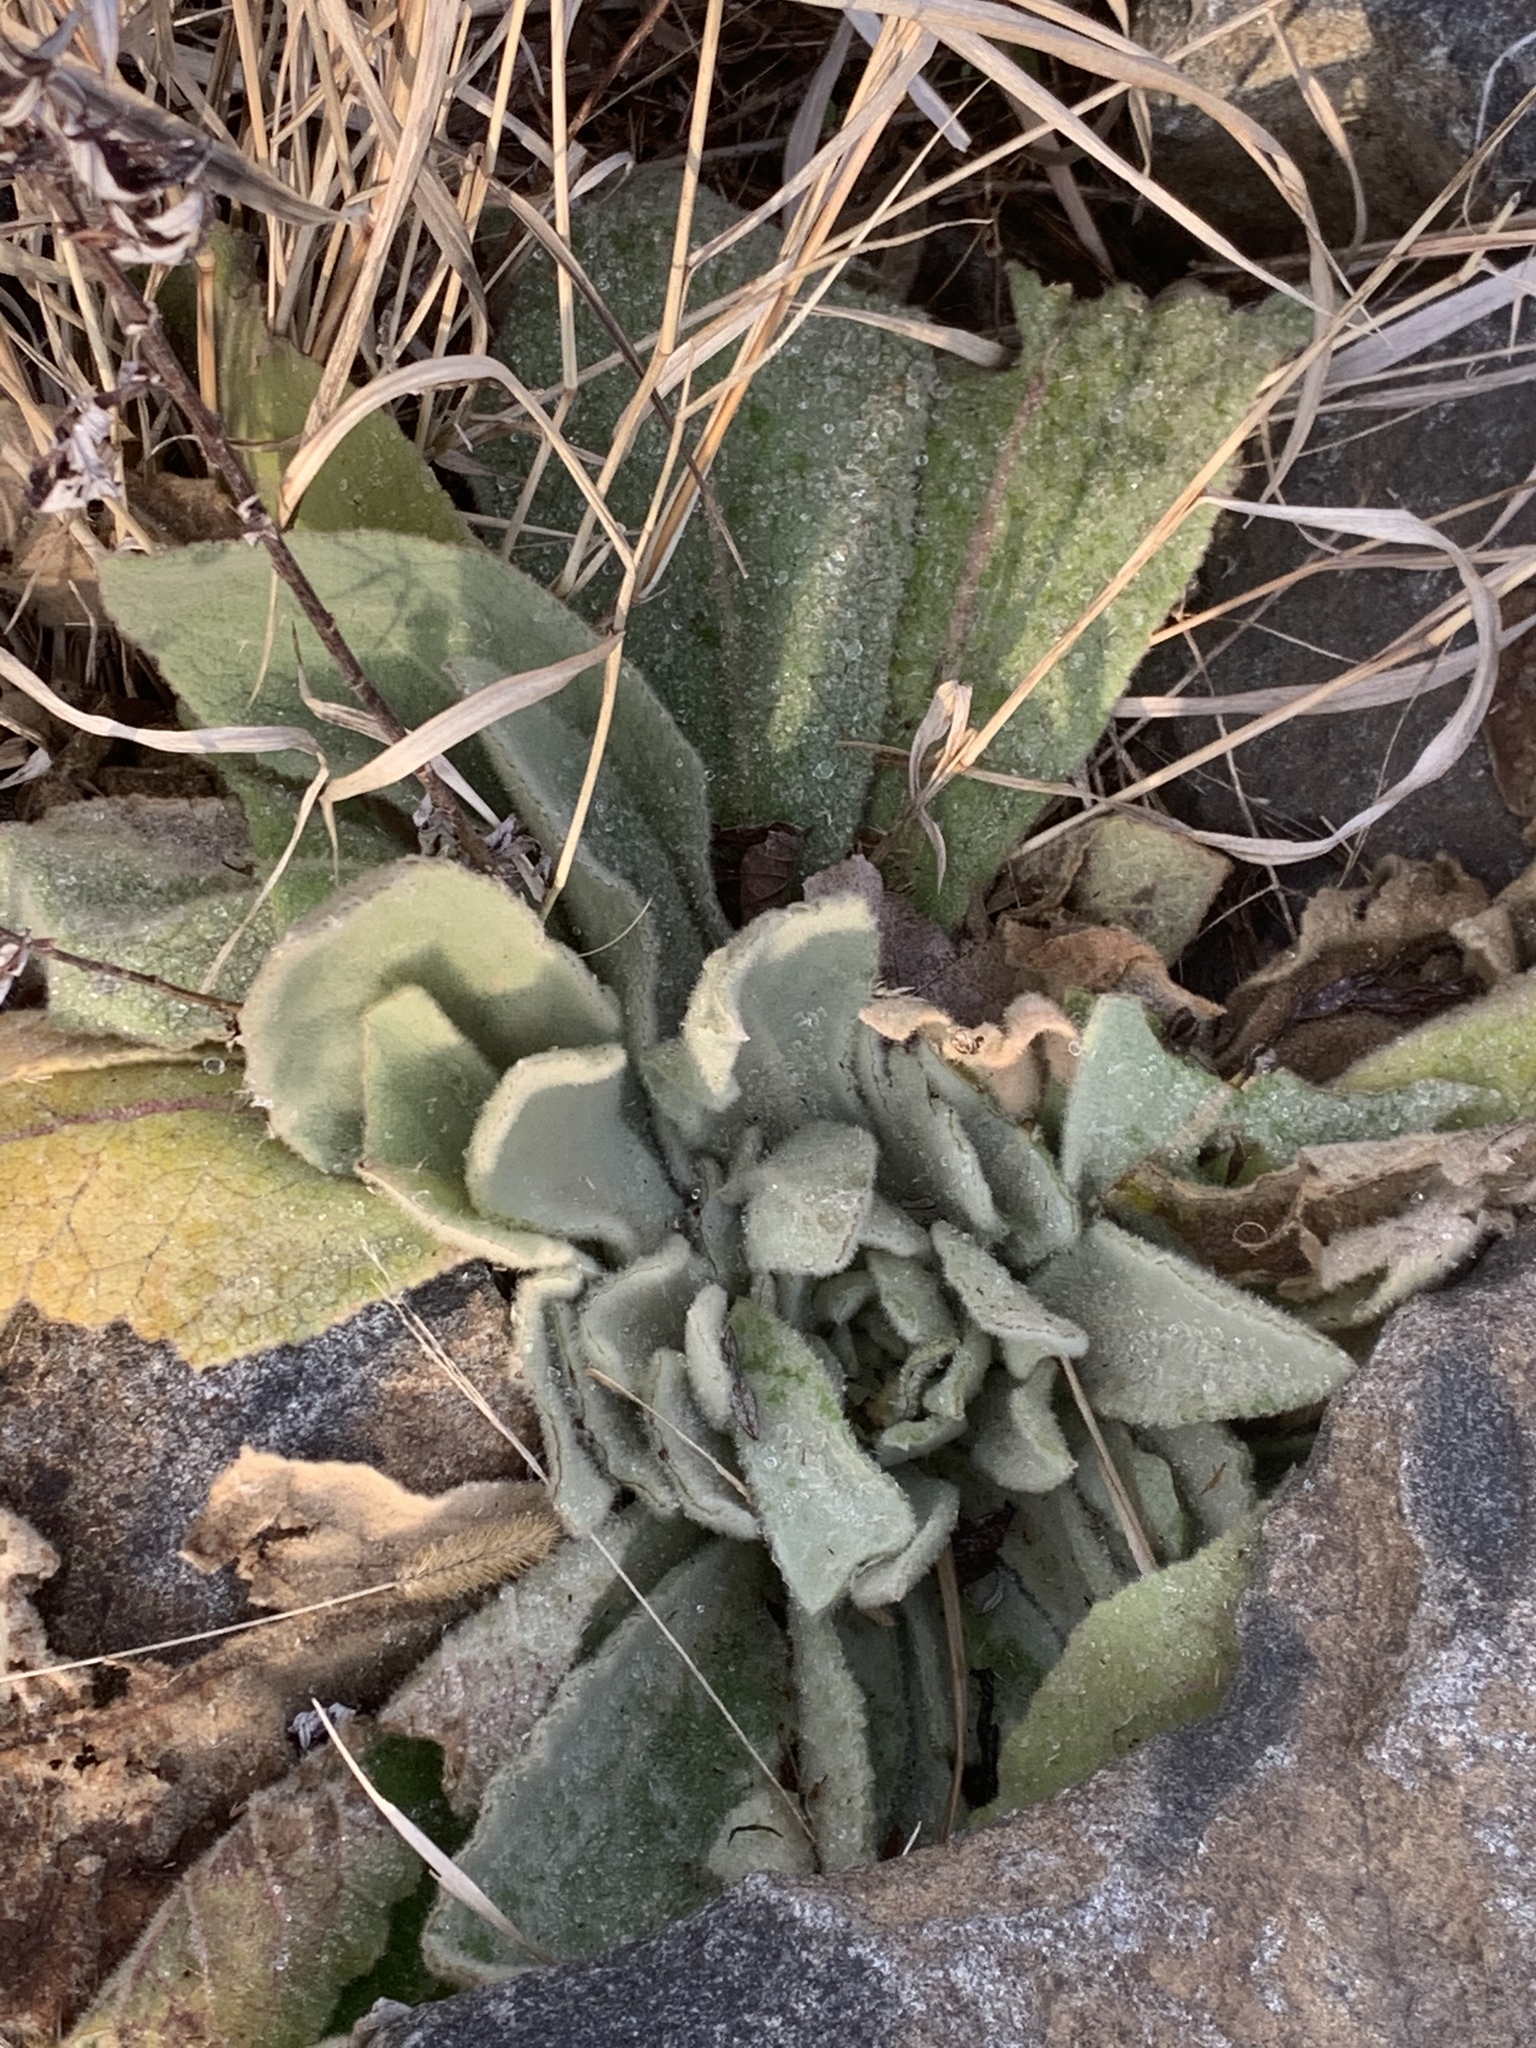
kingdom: Plantae
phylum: Tracheophyta
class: Magnoliopsida
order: Lamiales
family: Scrophulariaceae
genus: Verbascum
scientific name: Verbascum thapsus
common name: Common mullein
